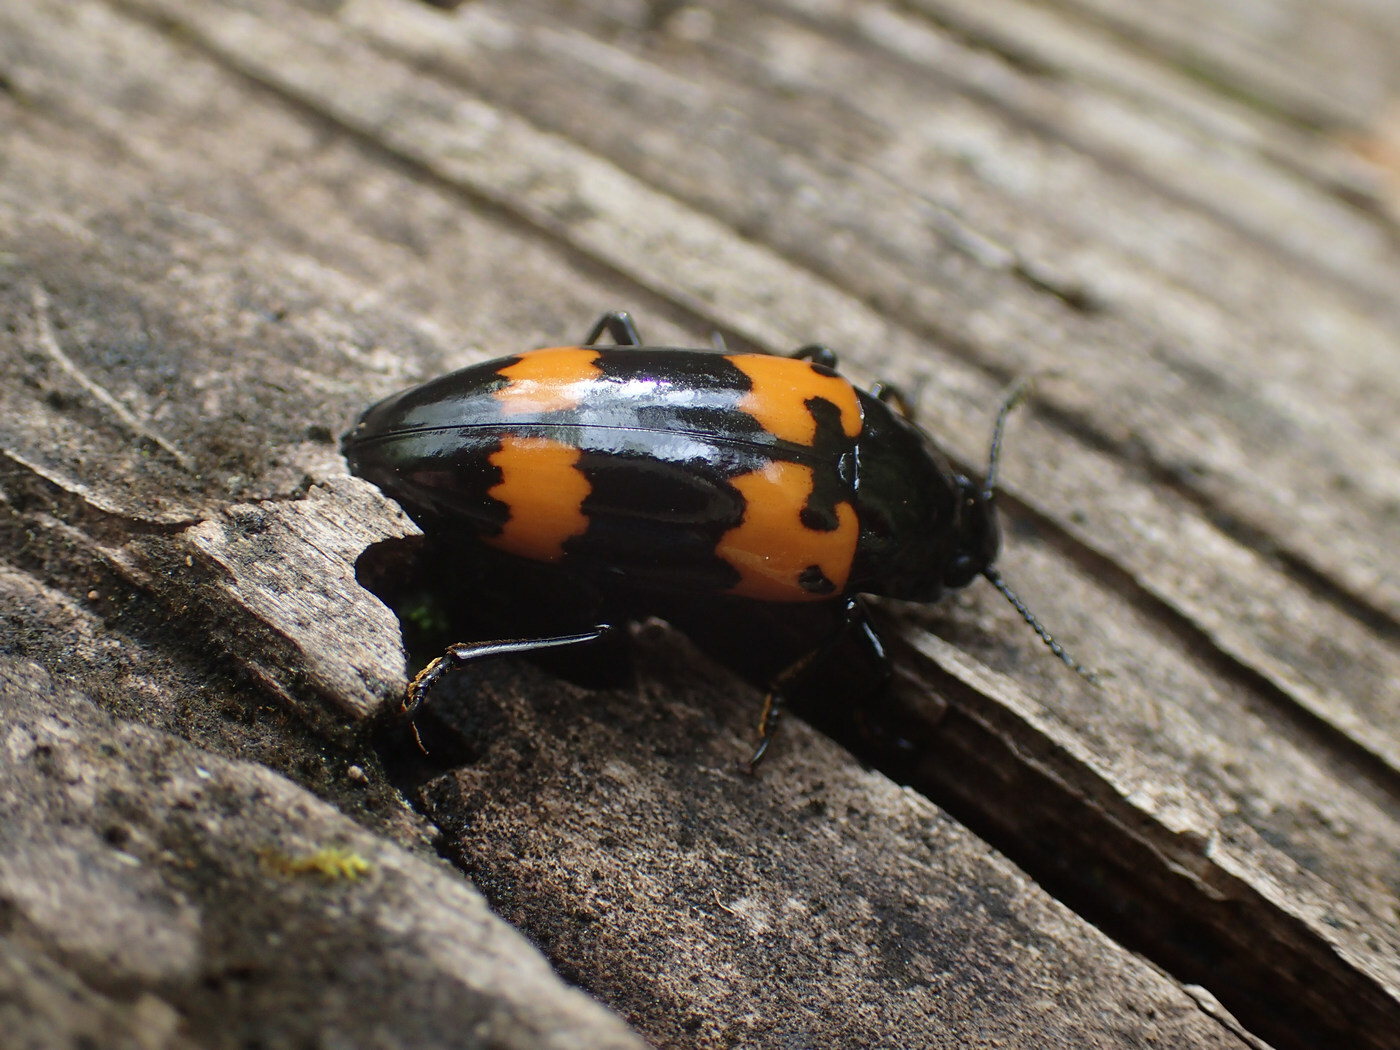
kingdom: Animalia
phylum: Arthropoda
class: Insecta
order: Coleoptera
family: Erotylidae
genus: Megalodacne
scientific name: Megalodacne heros
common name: Pleasing fungus beetle
